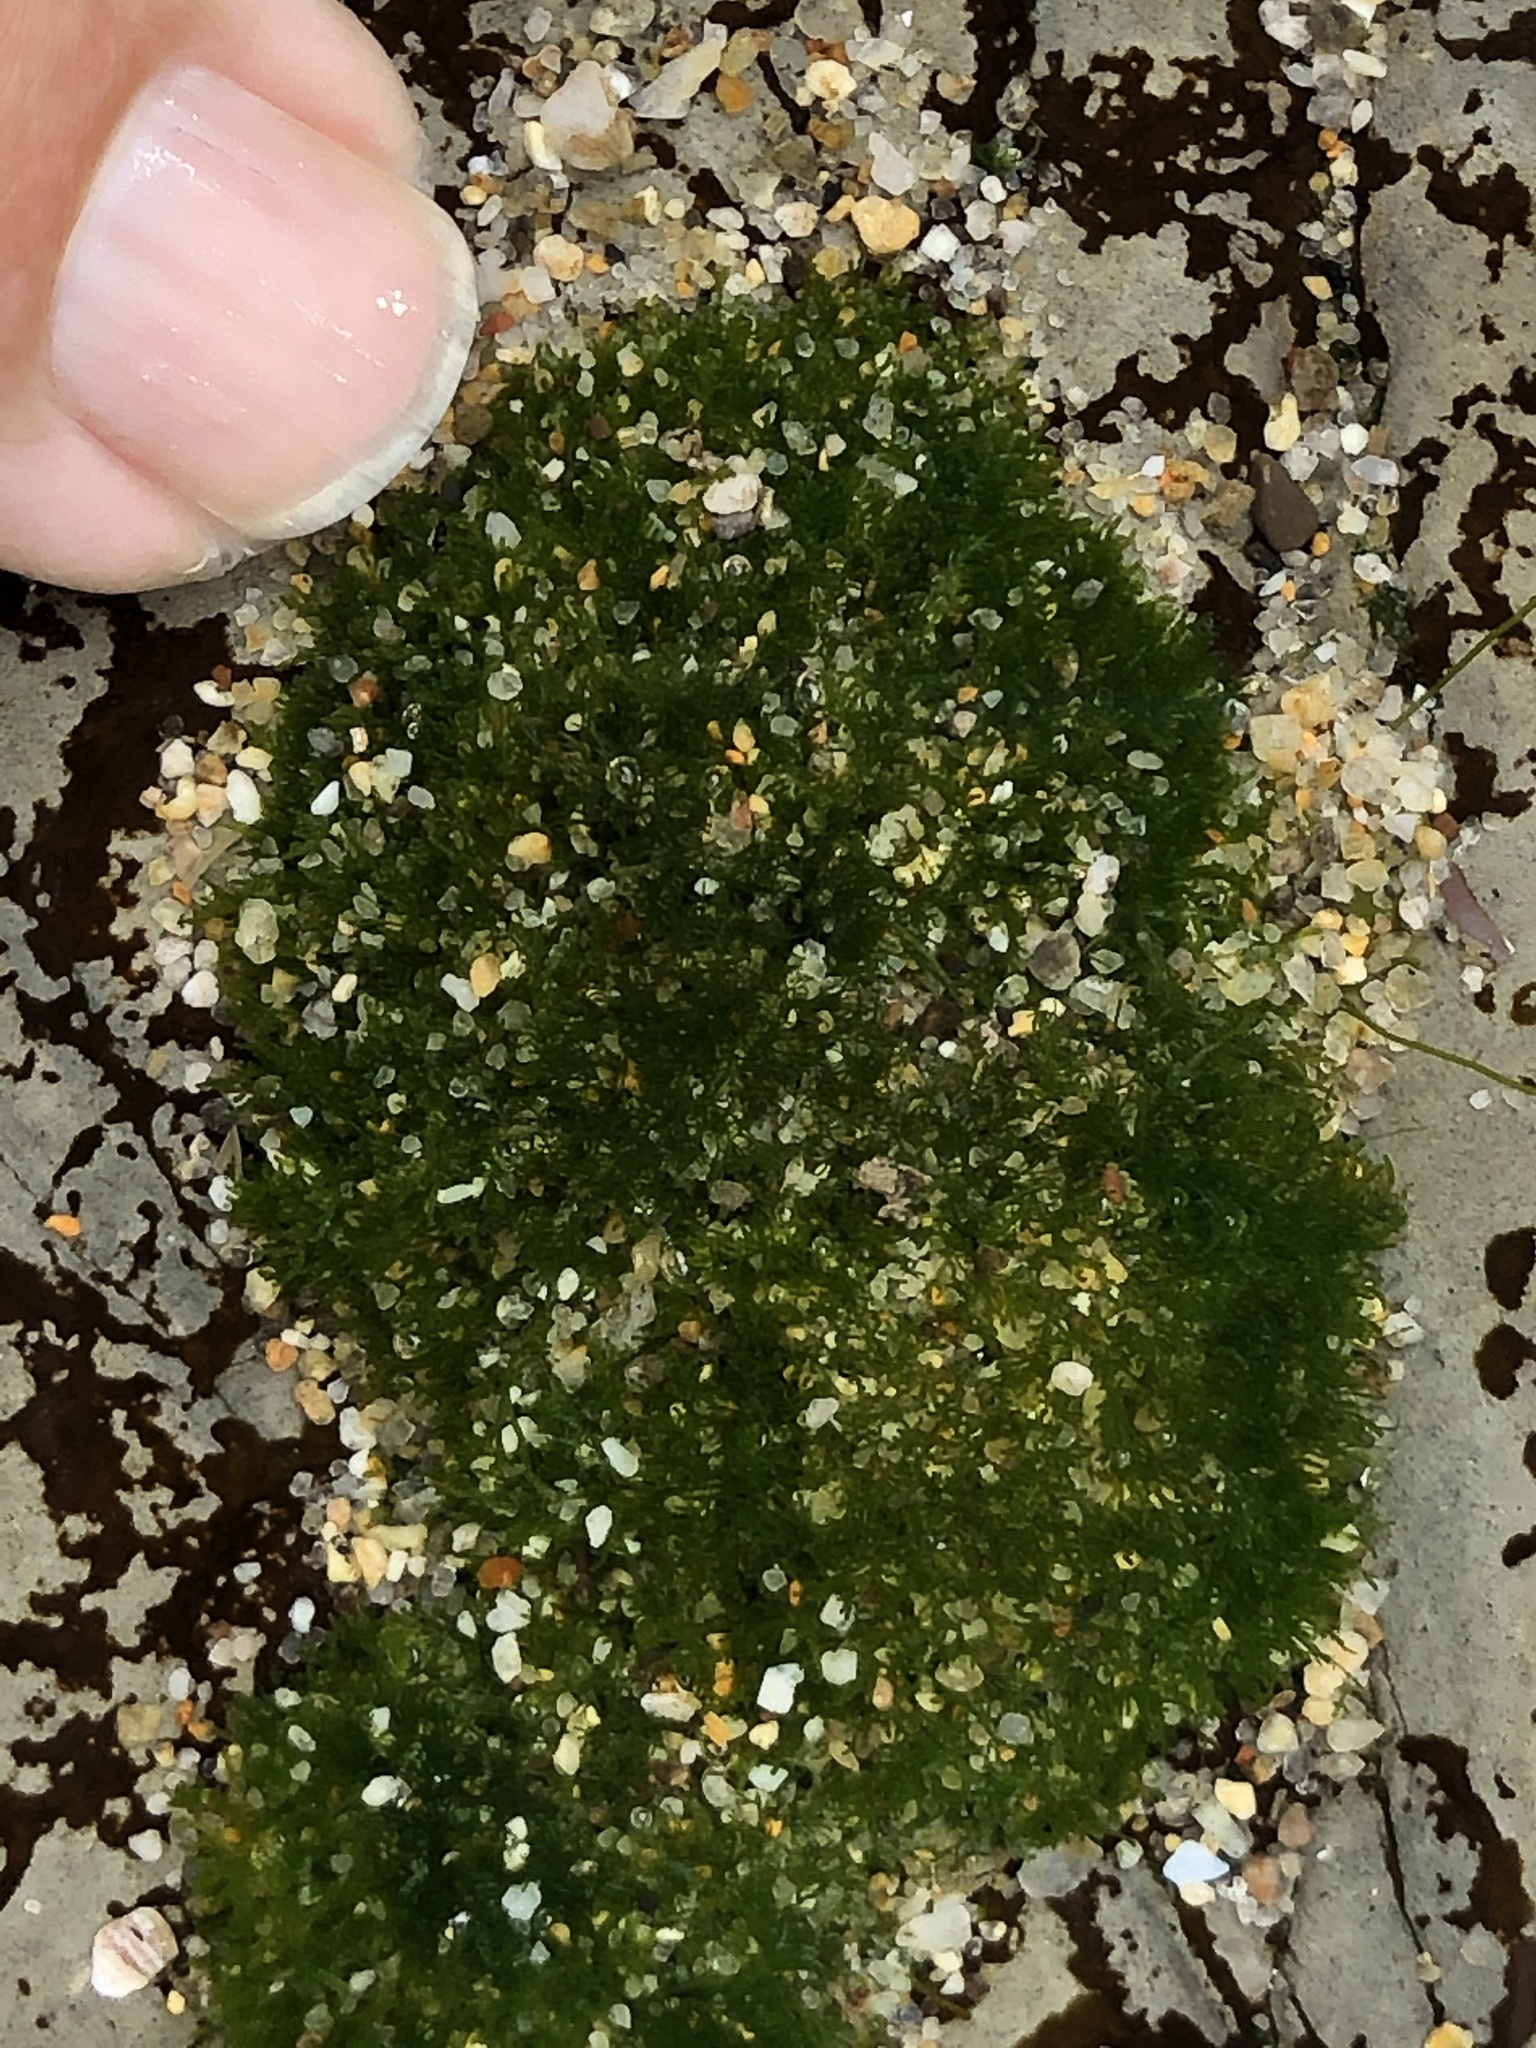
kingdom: Plantae
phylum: Chlorophyta
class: Ulvophyceae
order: Cladophorales
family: Cladophoraceae
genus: Cladophora
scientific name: Cladophora columbiana
